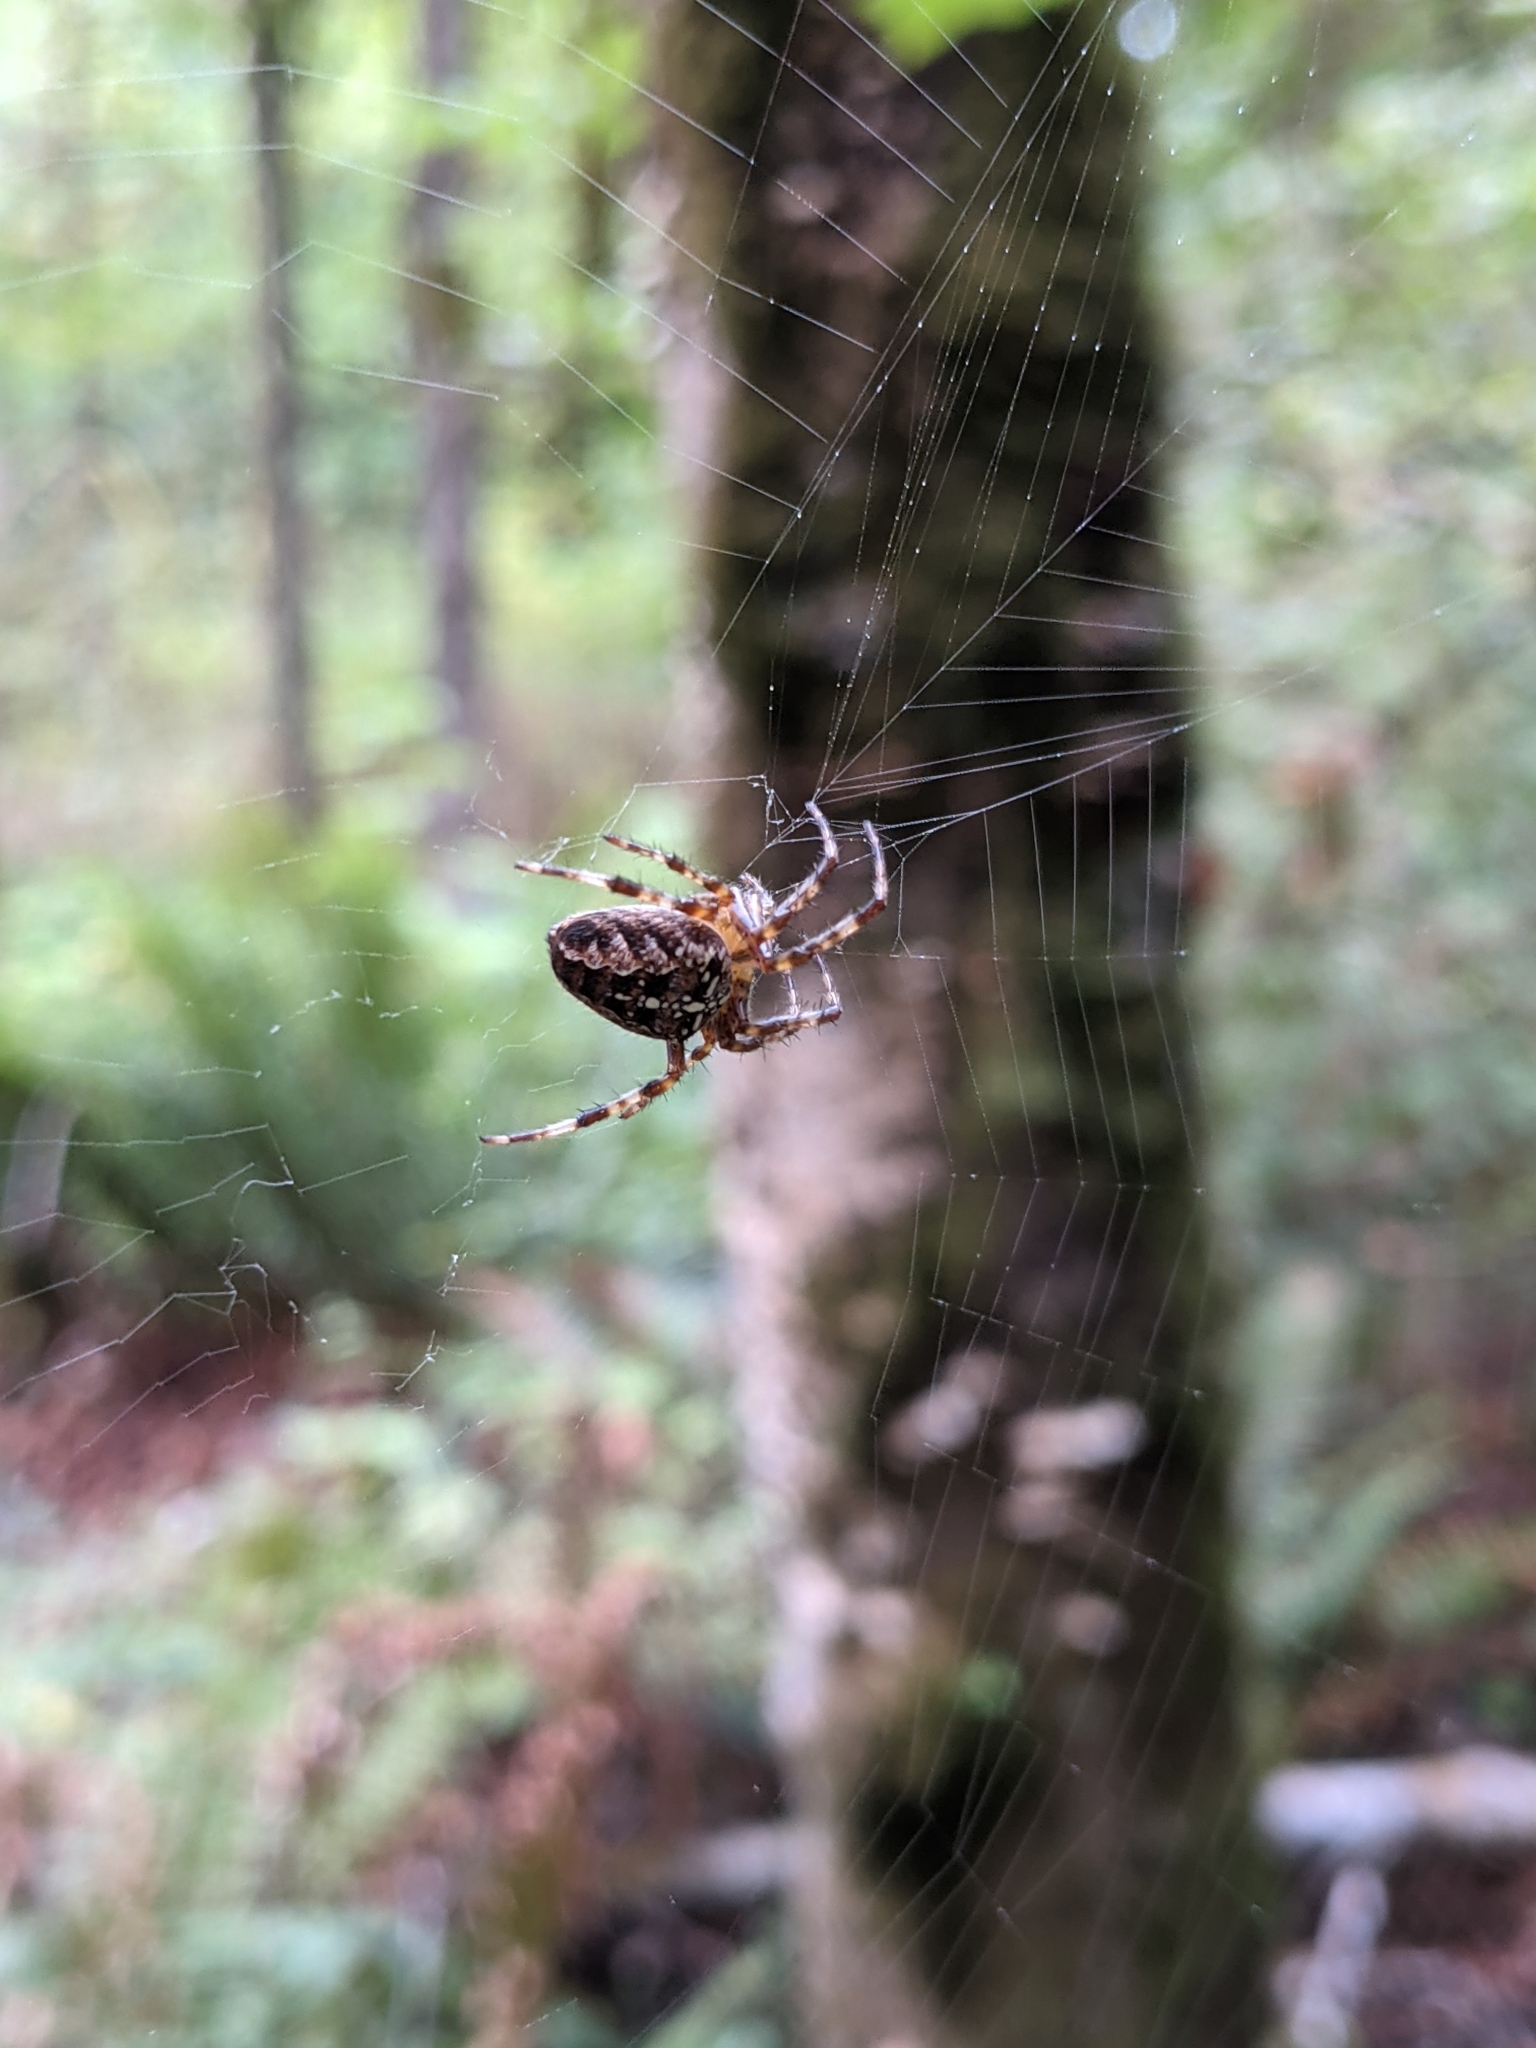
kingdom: Animalia
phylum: Arthropoda
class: Arachnida
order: Araneae
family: Araneidae
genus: Araneus
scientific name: Araneus diadematus
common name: Cross orbweaver
